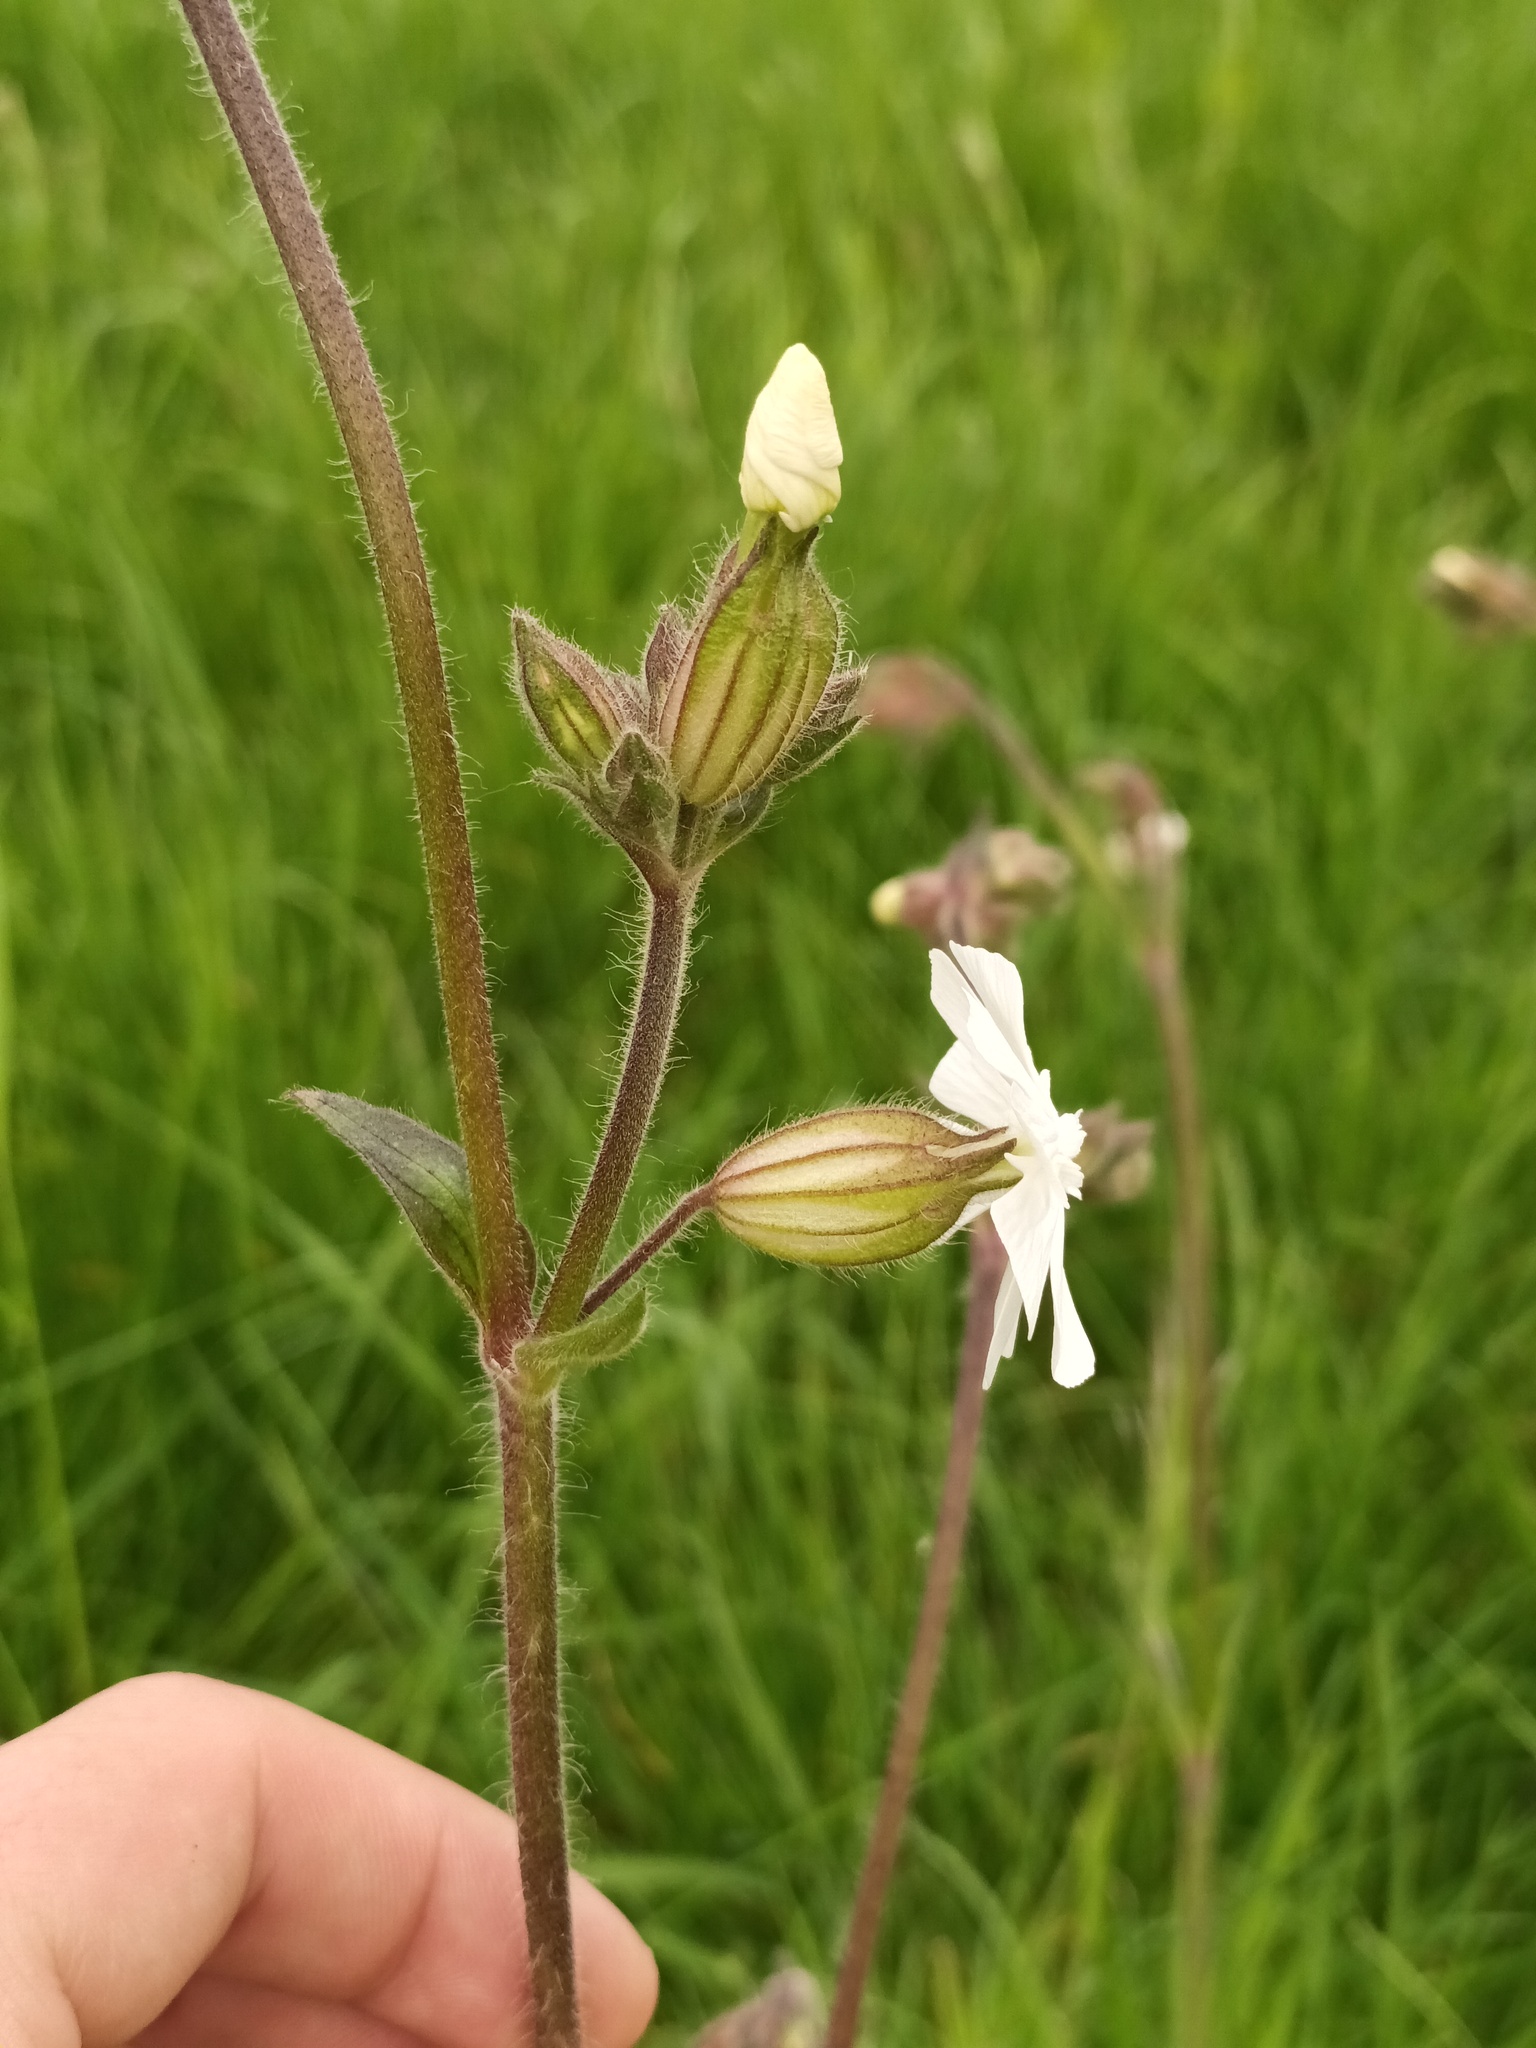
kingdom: Plantae
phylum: Tracheophyta
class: Magnoliopsida
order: Caryophyllales
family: Caryophyllaceae
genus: Silene
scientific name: Silene latifolia
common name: White campion
